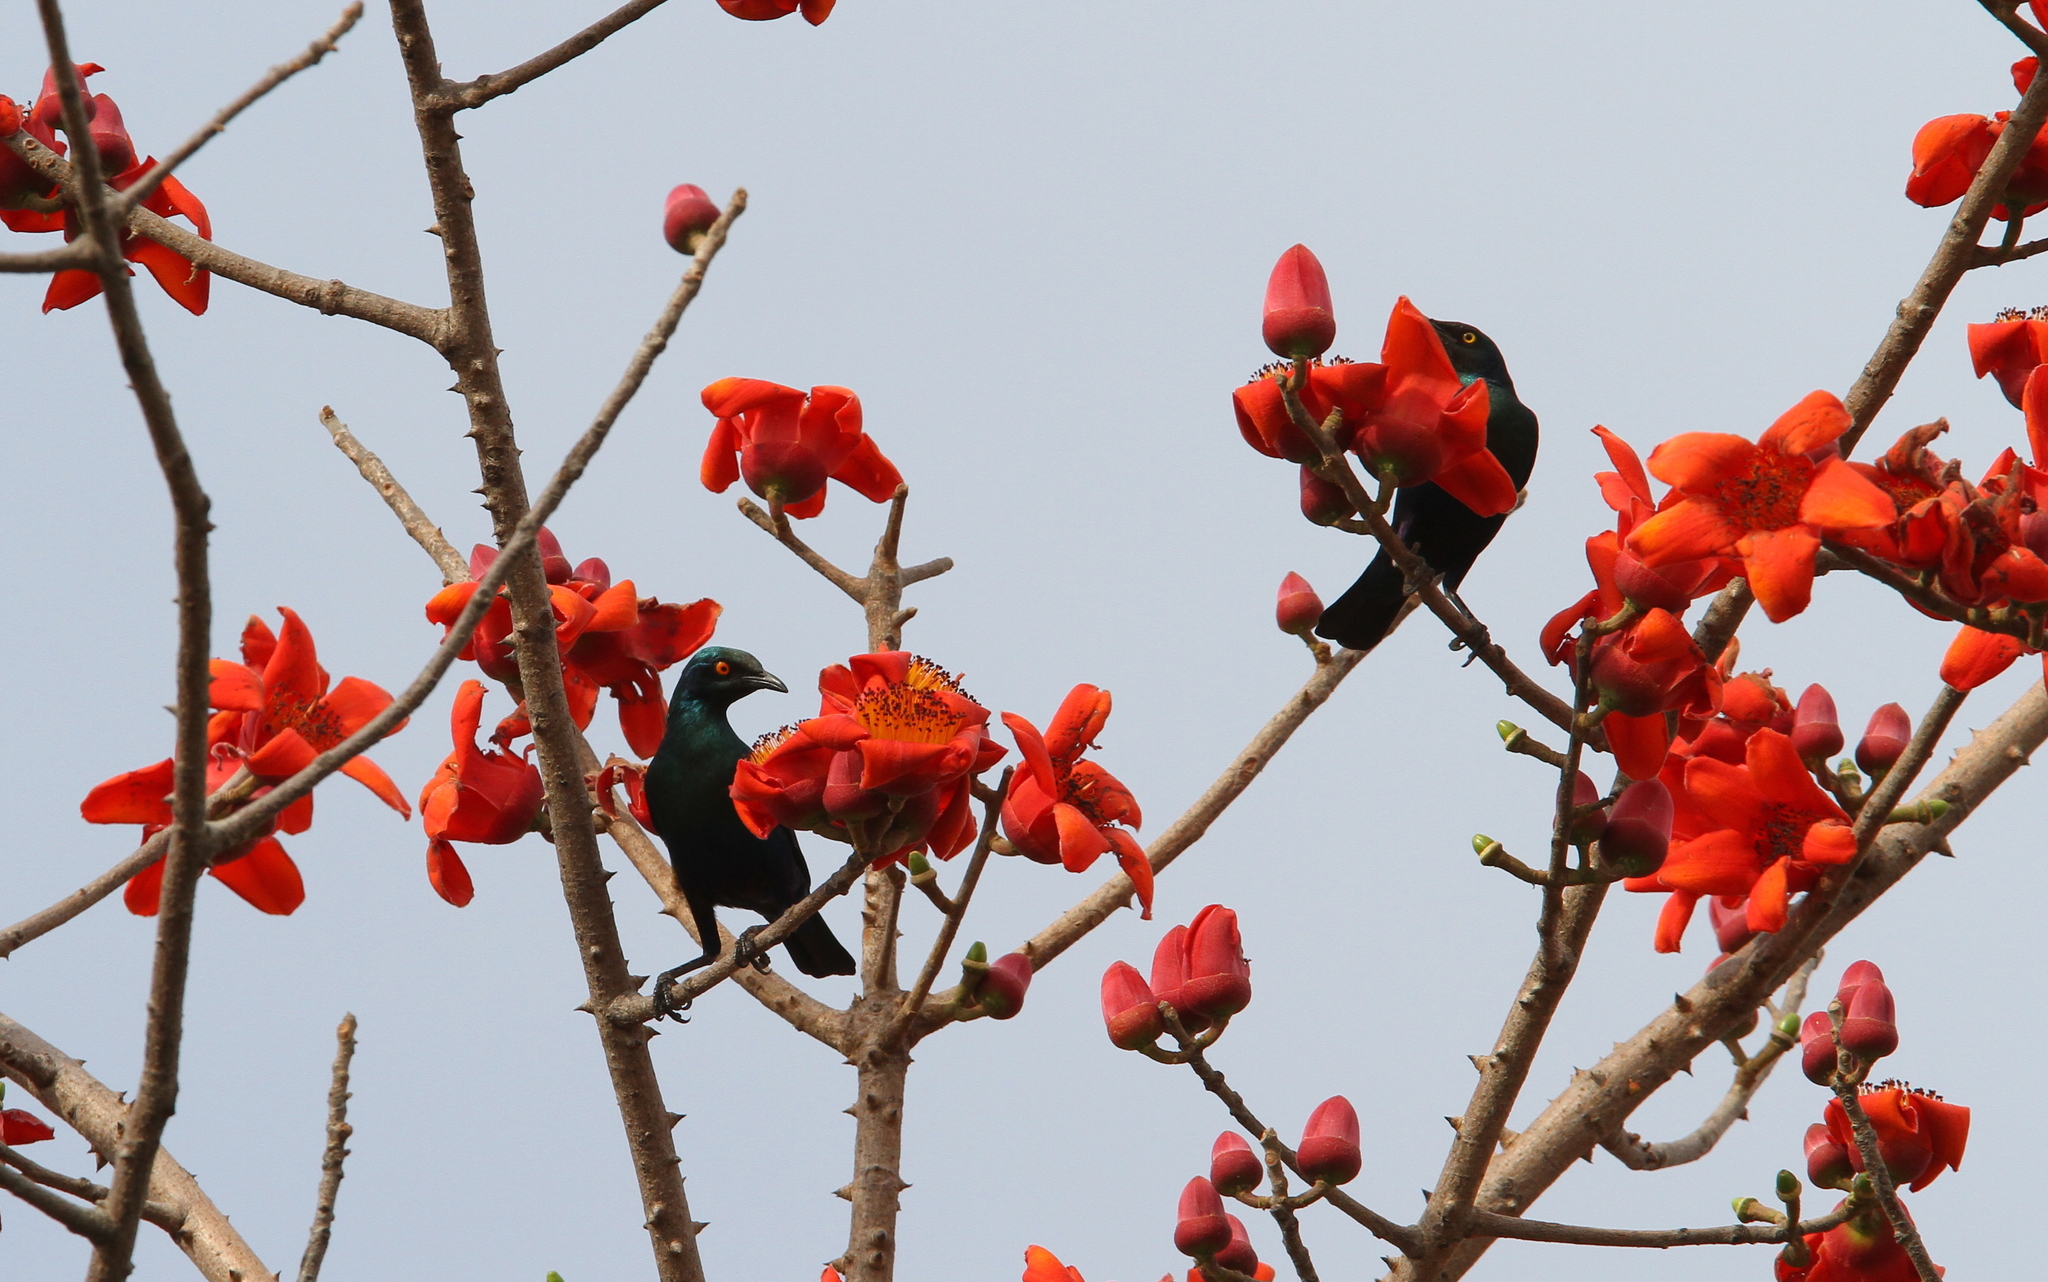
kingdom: Animalia
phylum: Chordata
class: Aves
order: Passeriformes
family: Sturnidae
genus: Lamprotornis
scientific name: Lamprotornis chalcurus
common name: Bronze-tailed starling
